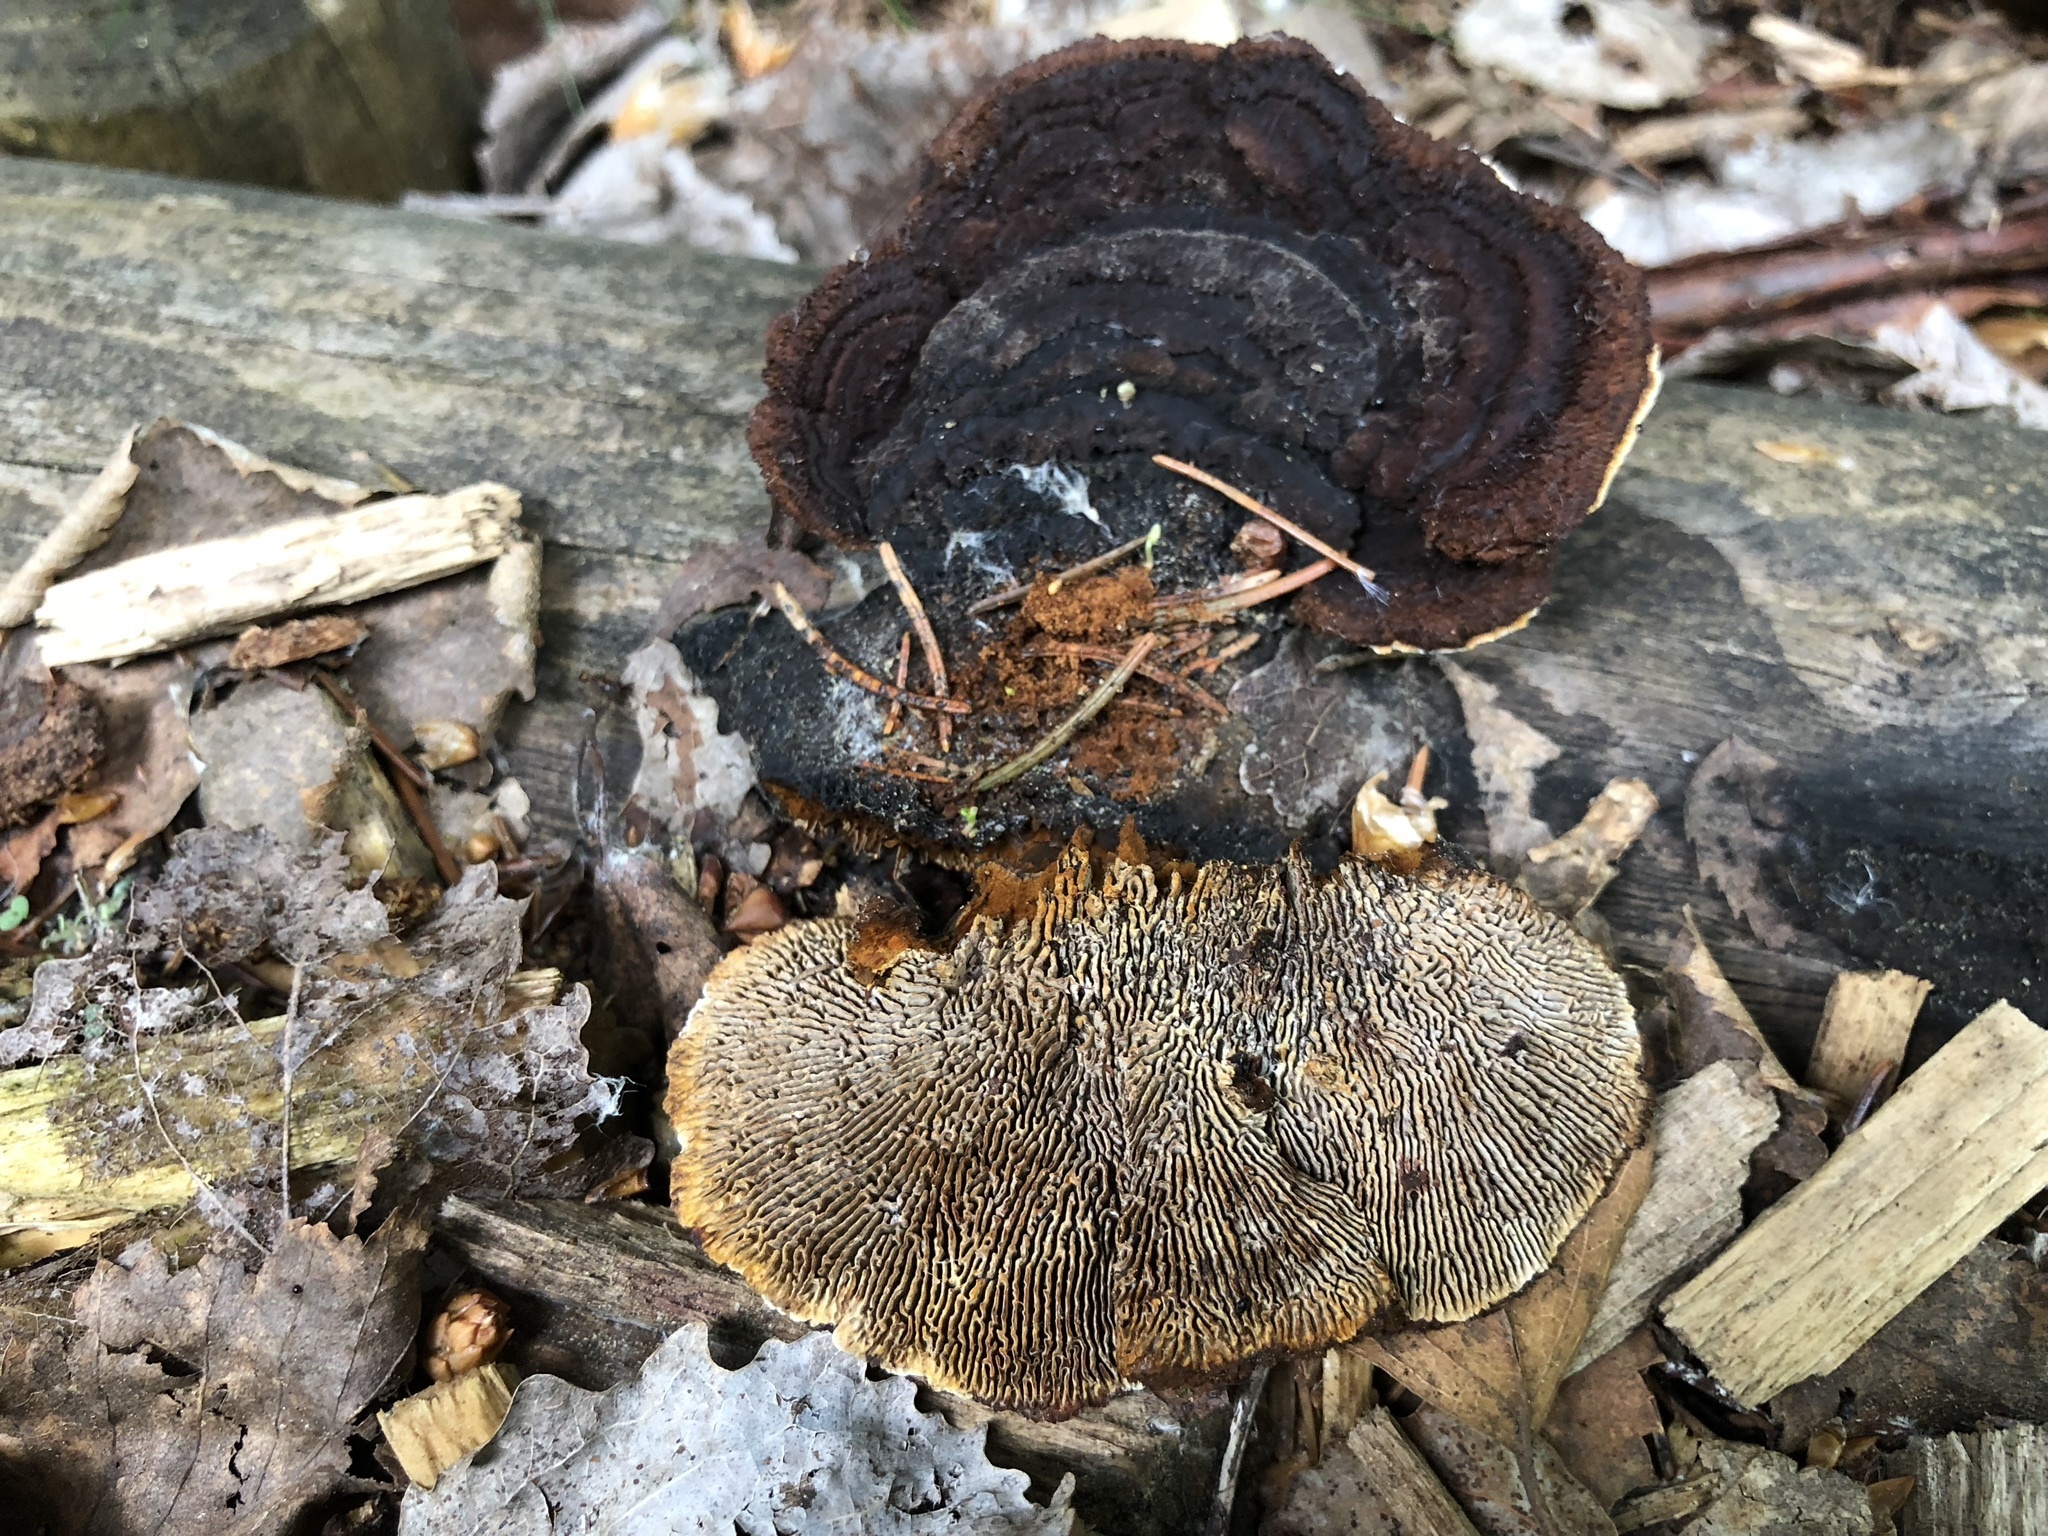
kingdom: Fungi
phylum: Basidiomycota
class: Agaricomycetes
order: Gloeophyllales
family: Gloeophyllaceae
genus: Gloeophyllum
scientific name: Gloeophyllum sepiarium
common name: Conifer mazegill
